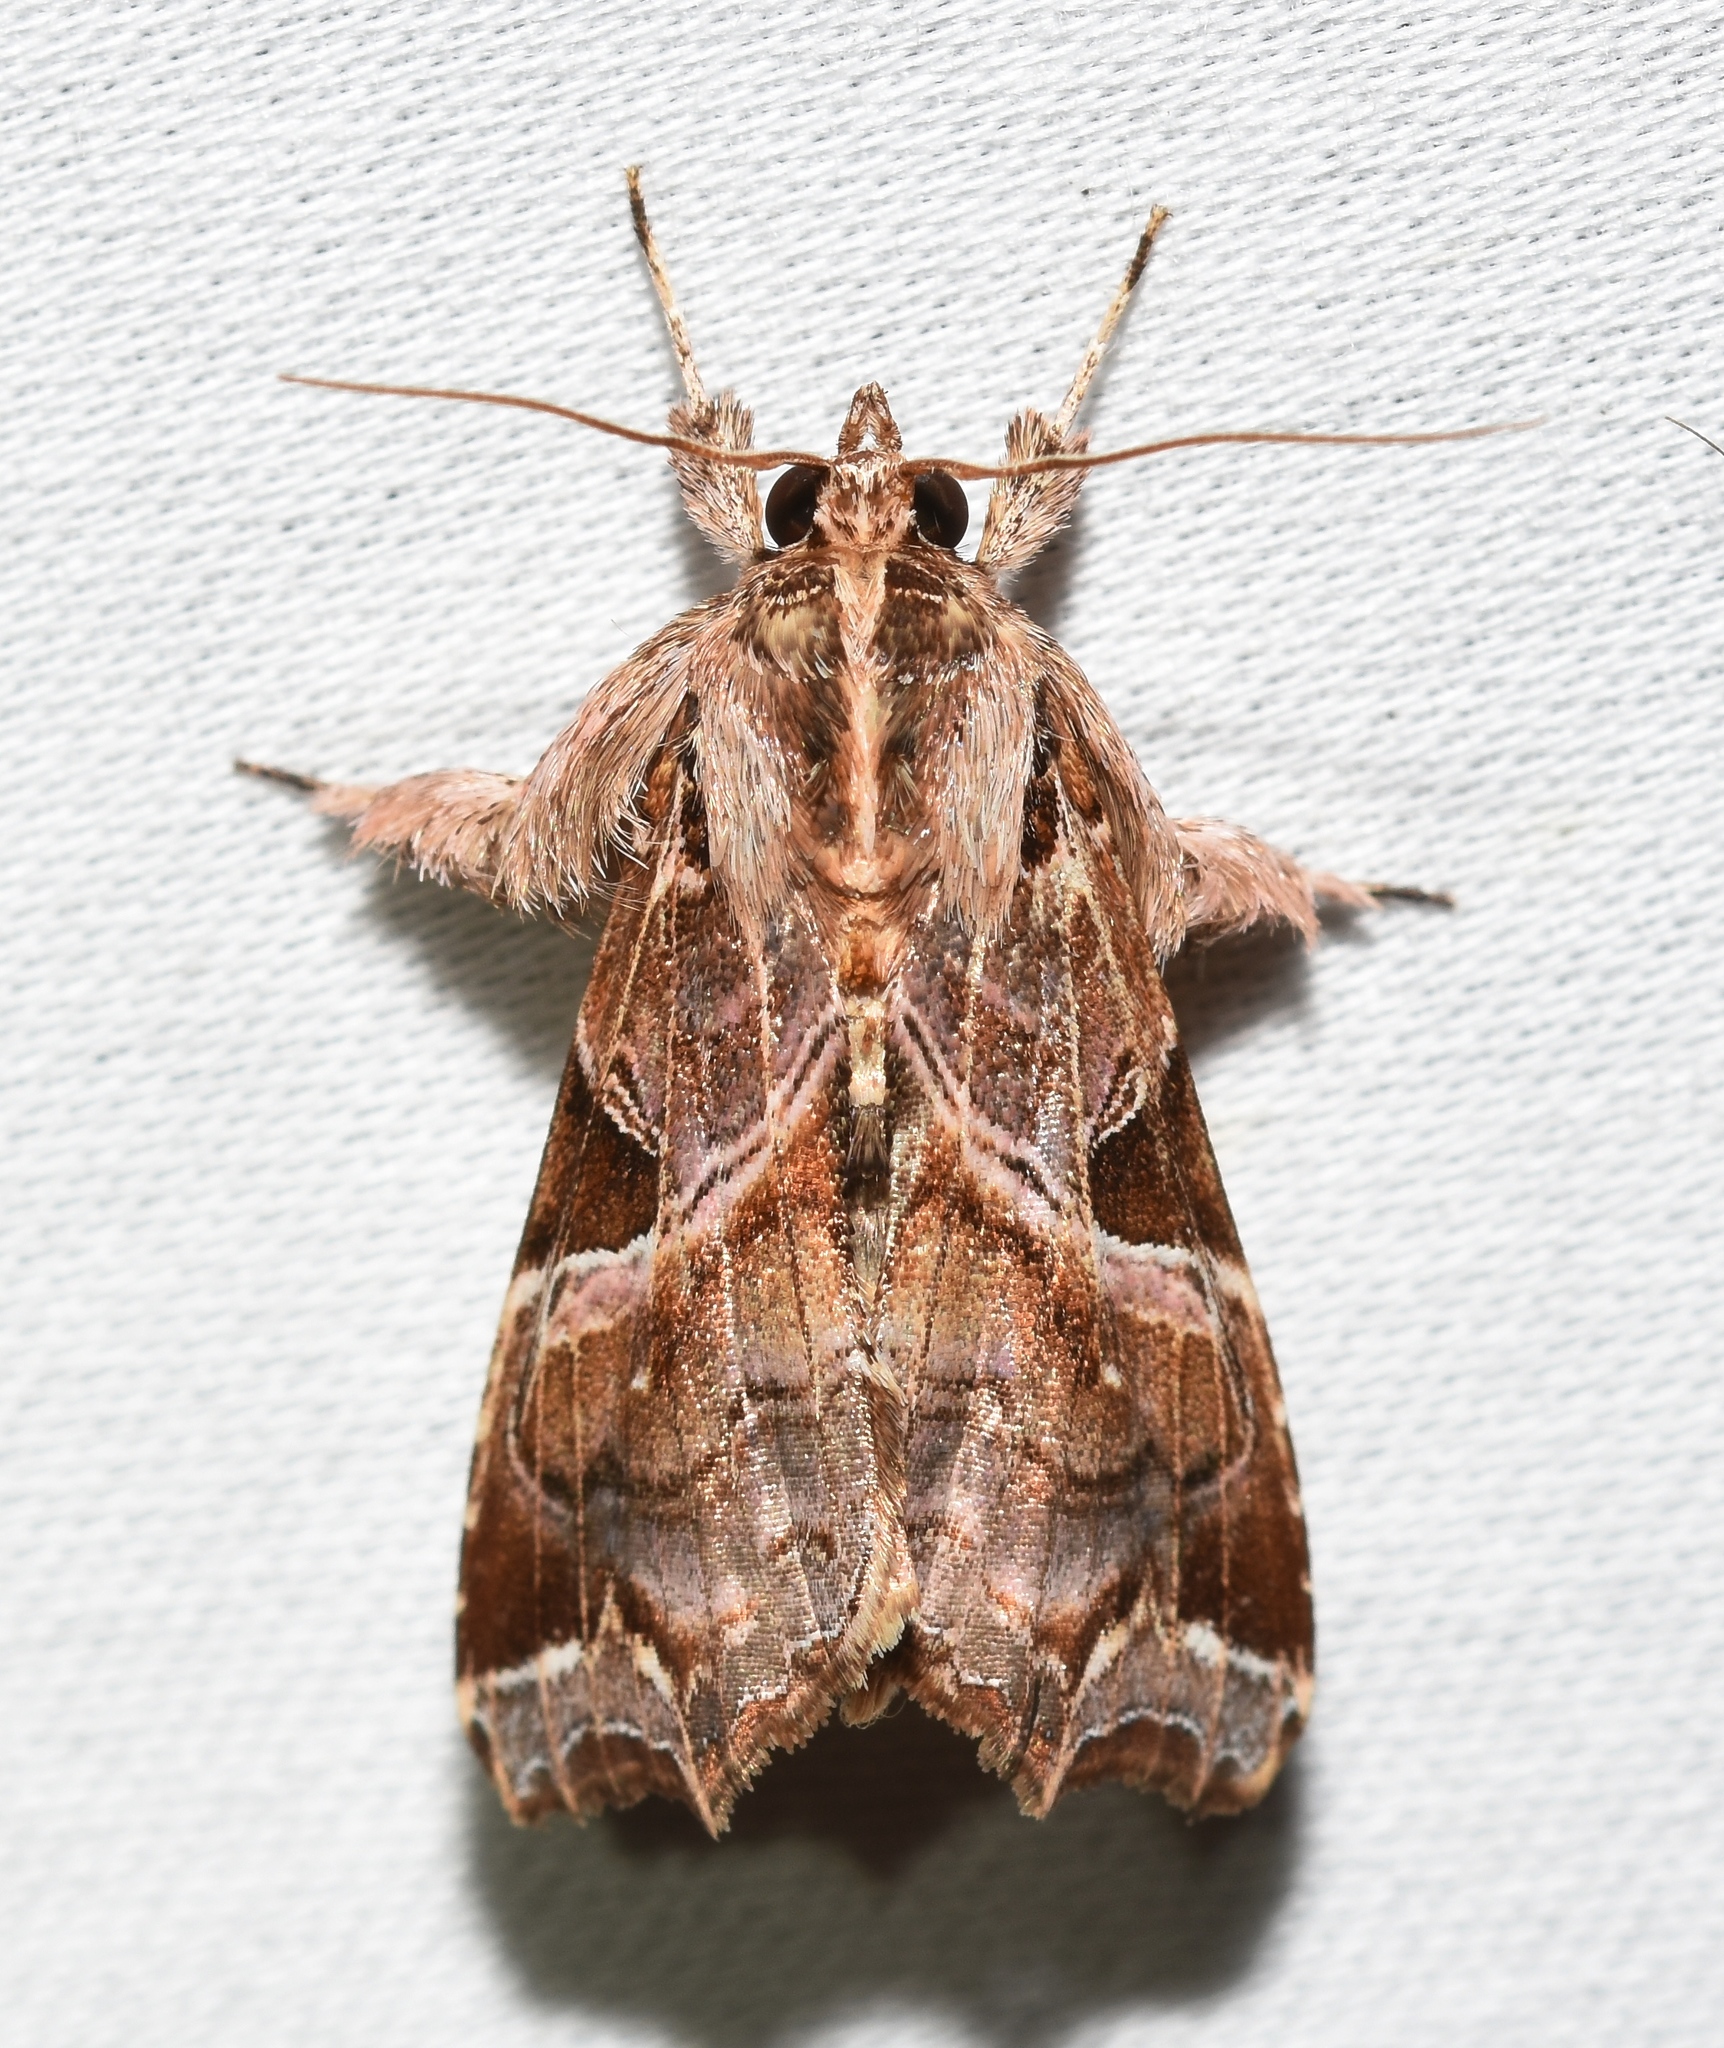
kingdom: Animalia
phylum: Arthropoda
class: Insecta
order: Lepidoptera
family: Noctuidae
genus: Callopistria
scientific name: Callopistria floridensis
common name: Florida fern moth
